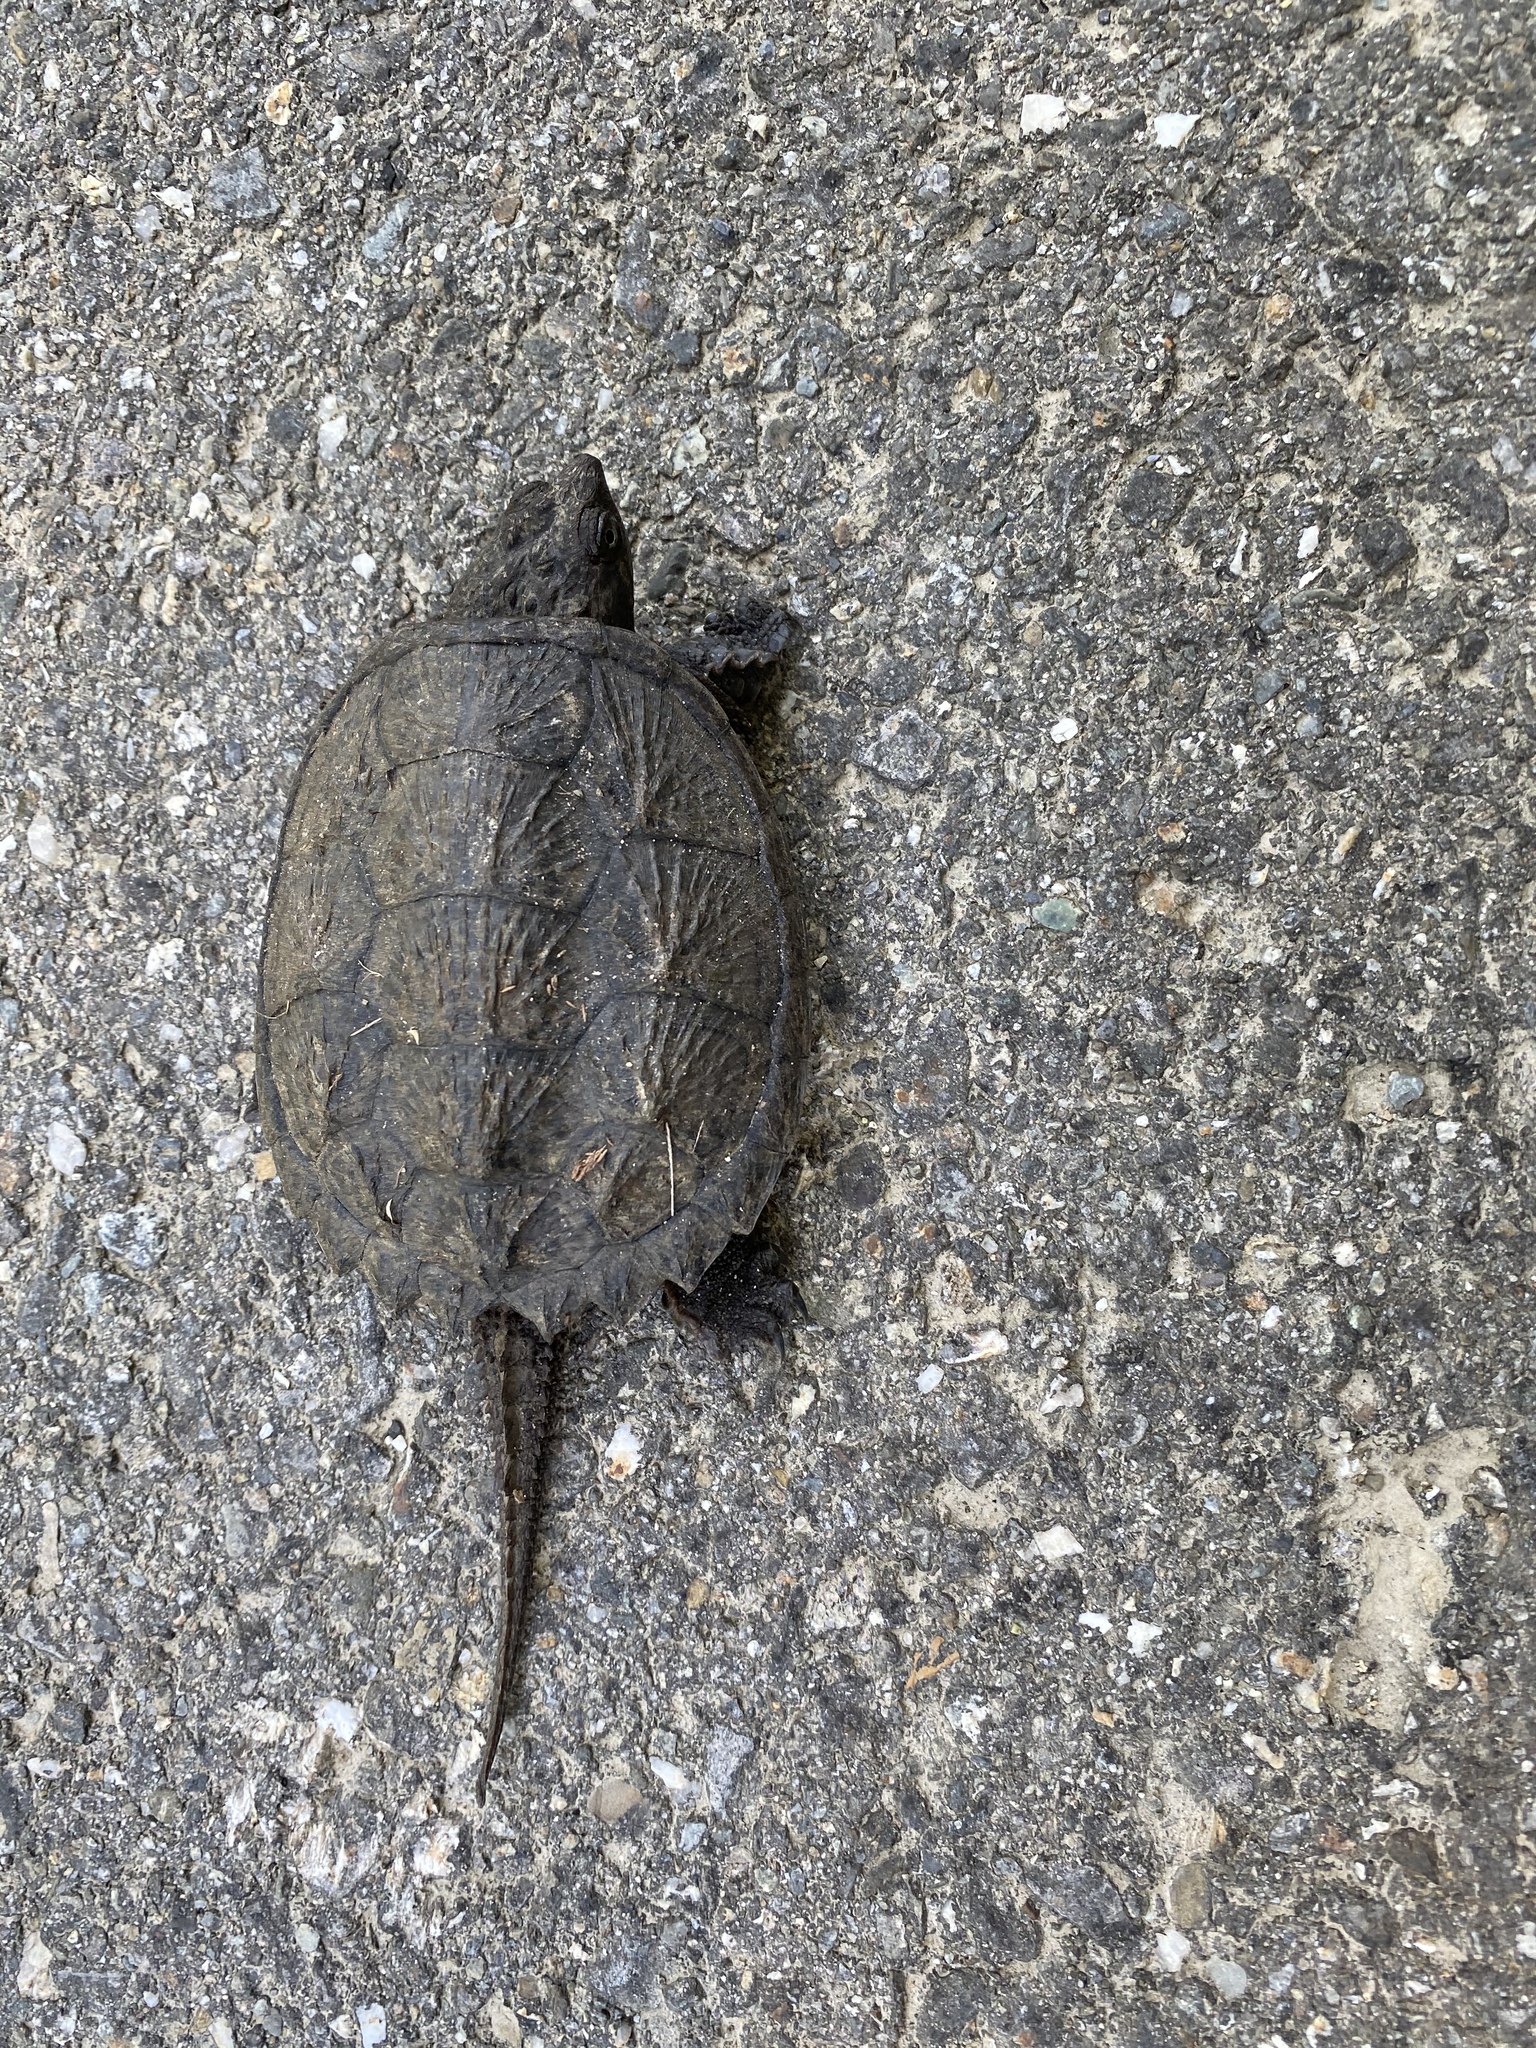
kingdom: Animalia
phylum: Chordata
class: Testudines
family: Chelydridae
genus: Chelydra
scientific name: Chelydra serpentina
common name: Common snapping turtle
